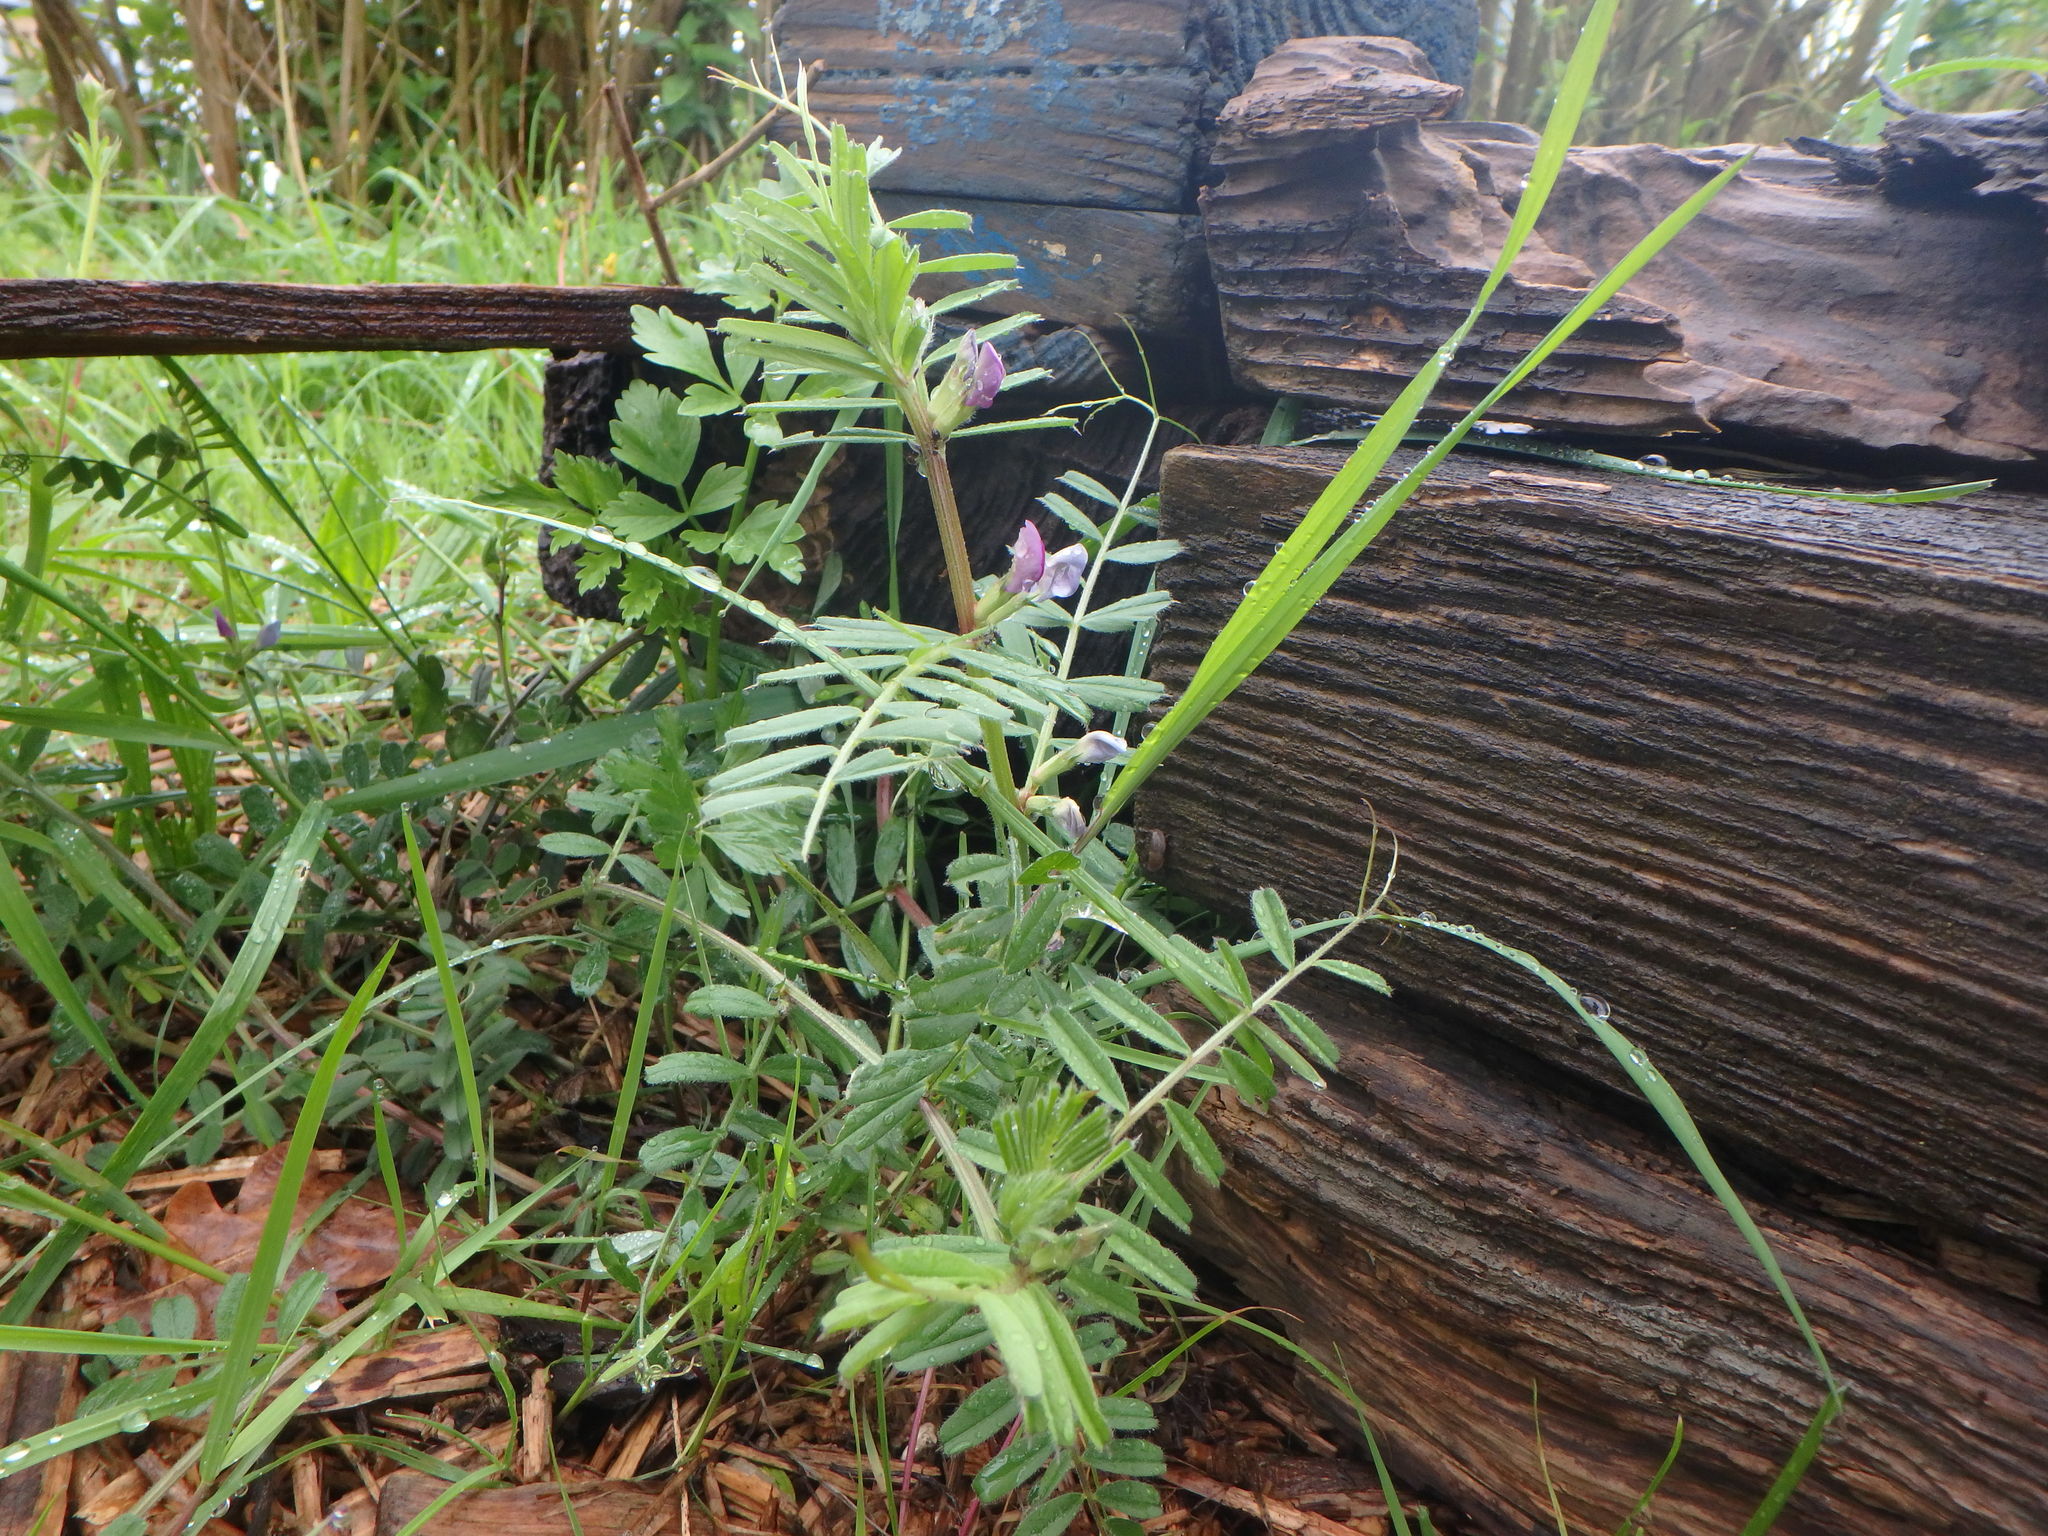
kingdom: Plantae
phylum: Tracheophyta
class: Magnoliopsida
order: Fabales
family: Fabaceae
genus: Vicia
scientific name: Vicia sativa
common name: Garden vetch
